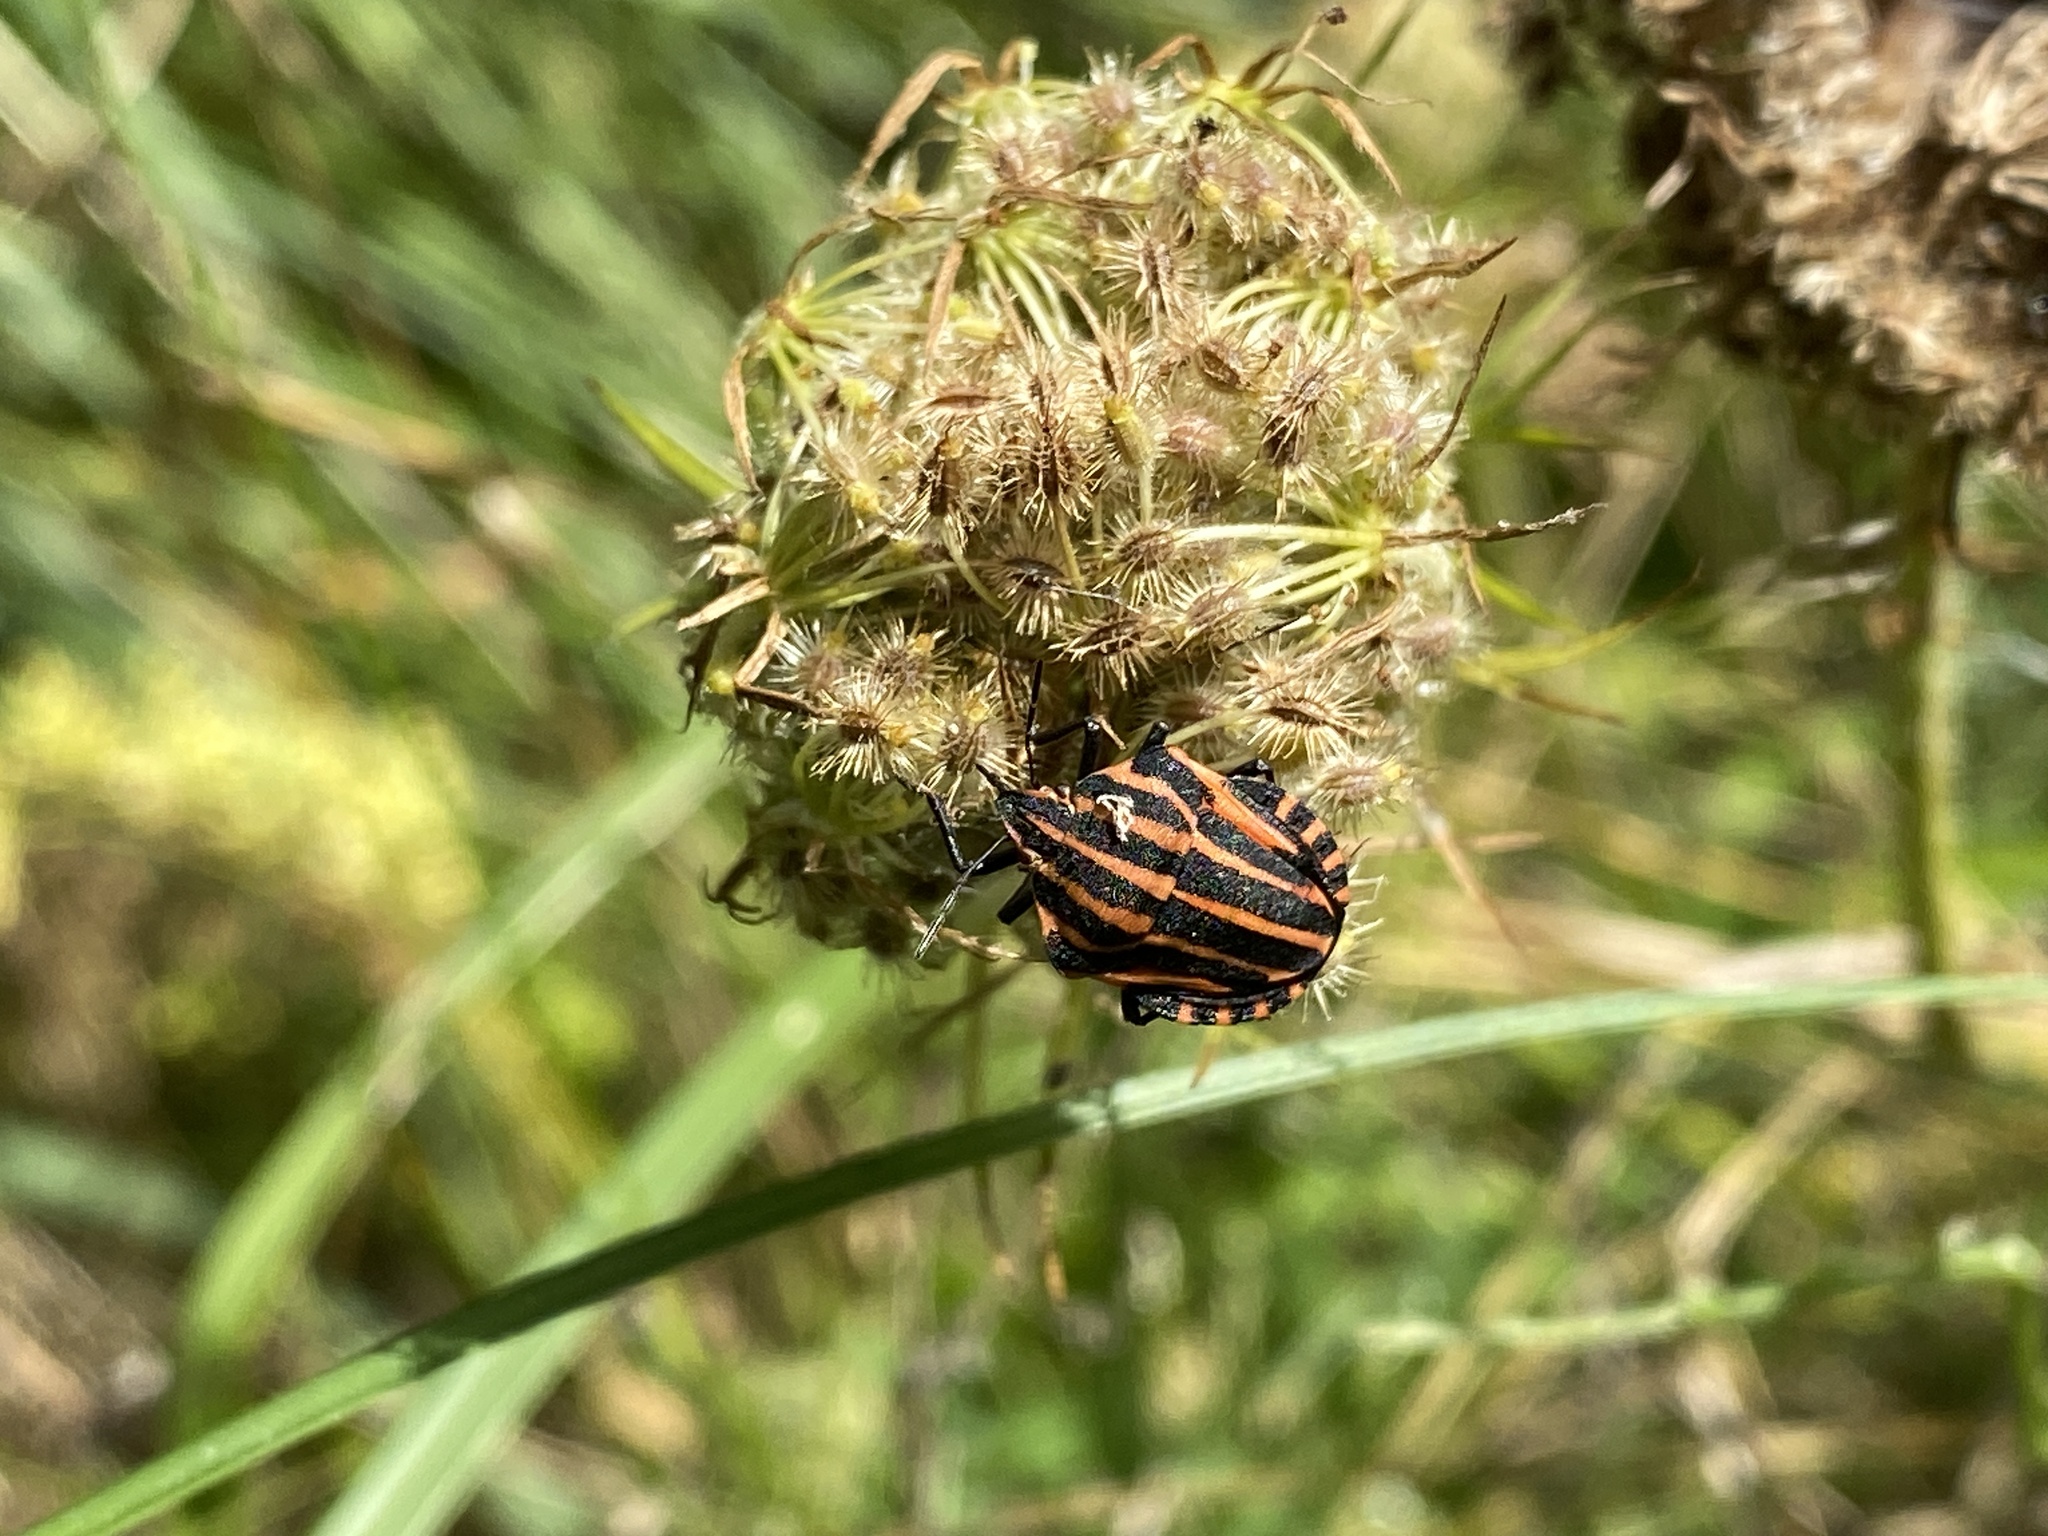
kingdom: Animalia
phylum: Arthropoda
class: Insecta
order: Hemiptera
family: Pentatomidae
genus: Graphosoma
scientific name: Graphosoma italicum
